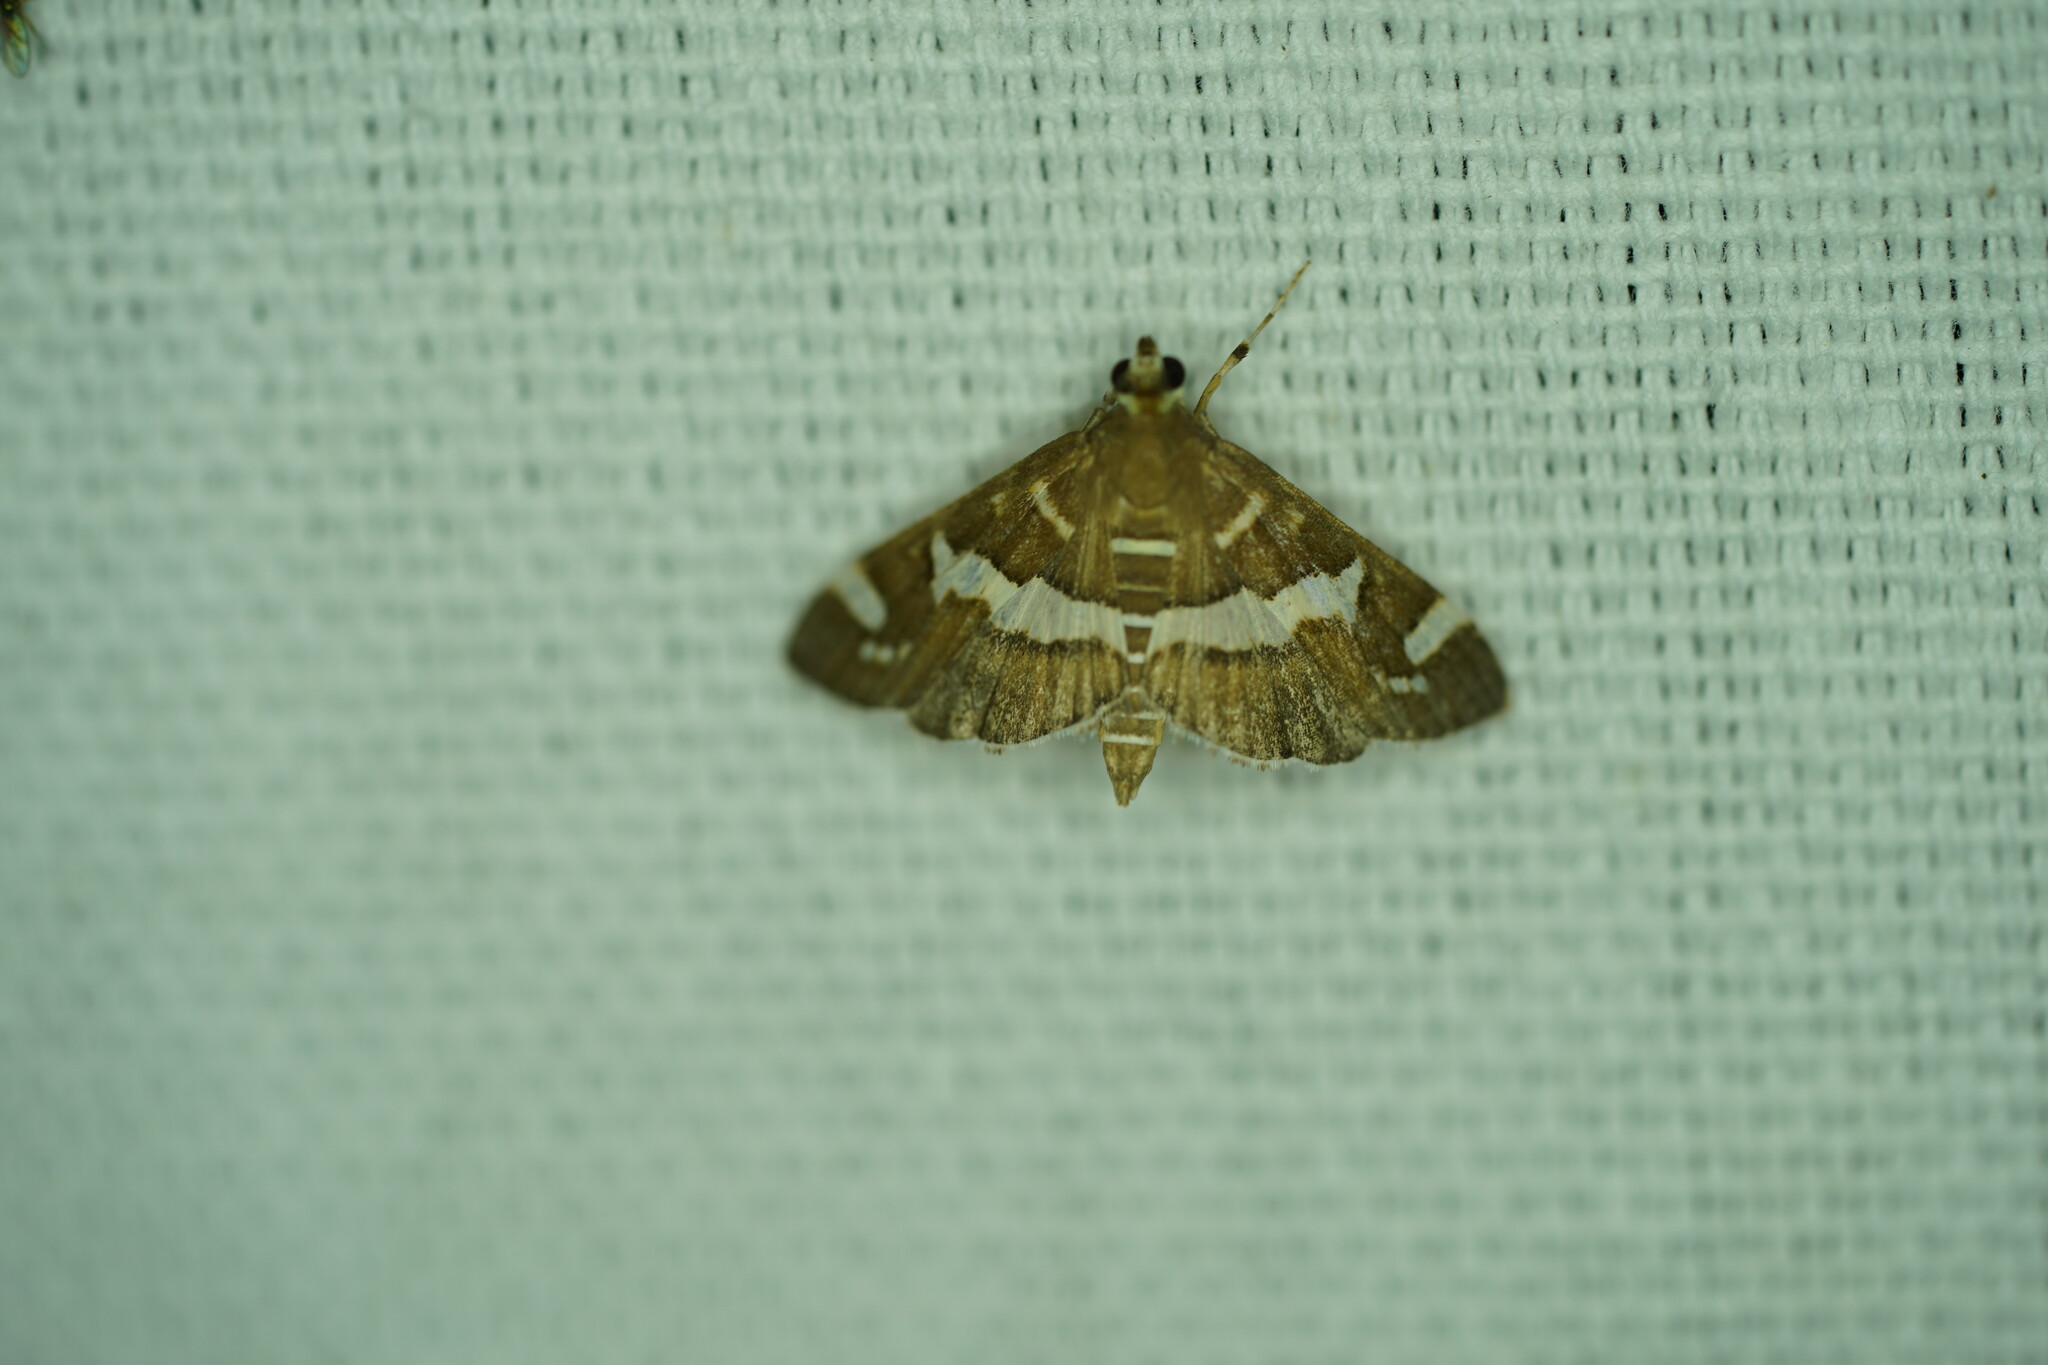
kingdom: Animalia
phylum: Arthropoda
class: Insecta
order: Lepidoptera
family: Crambidae
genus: Spoladea
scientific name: Spoladea recurvalis
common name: Beet webworm moth
